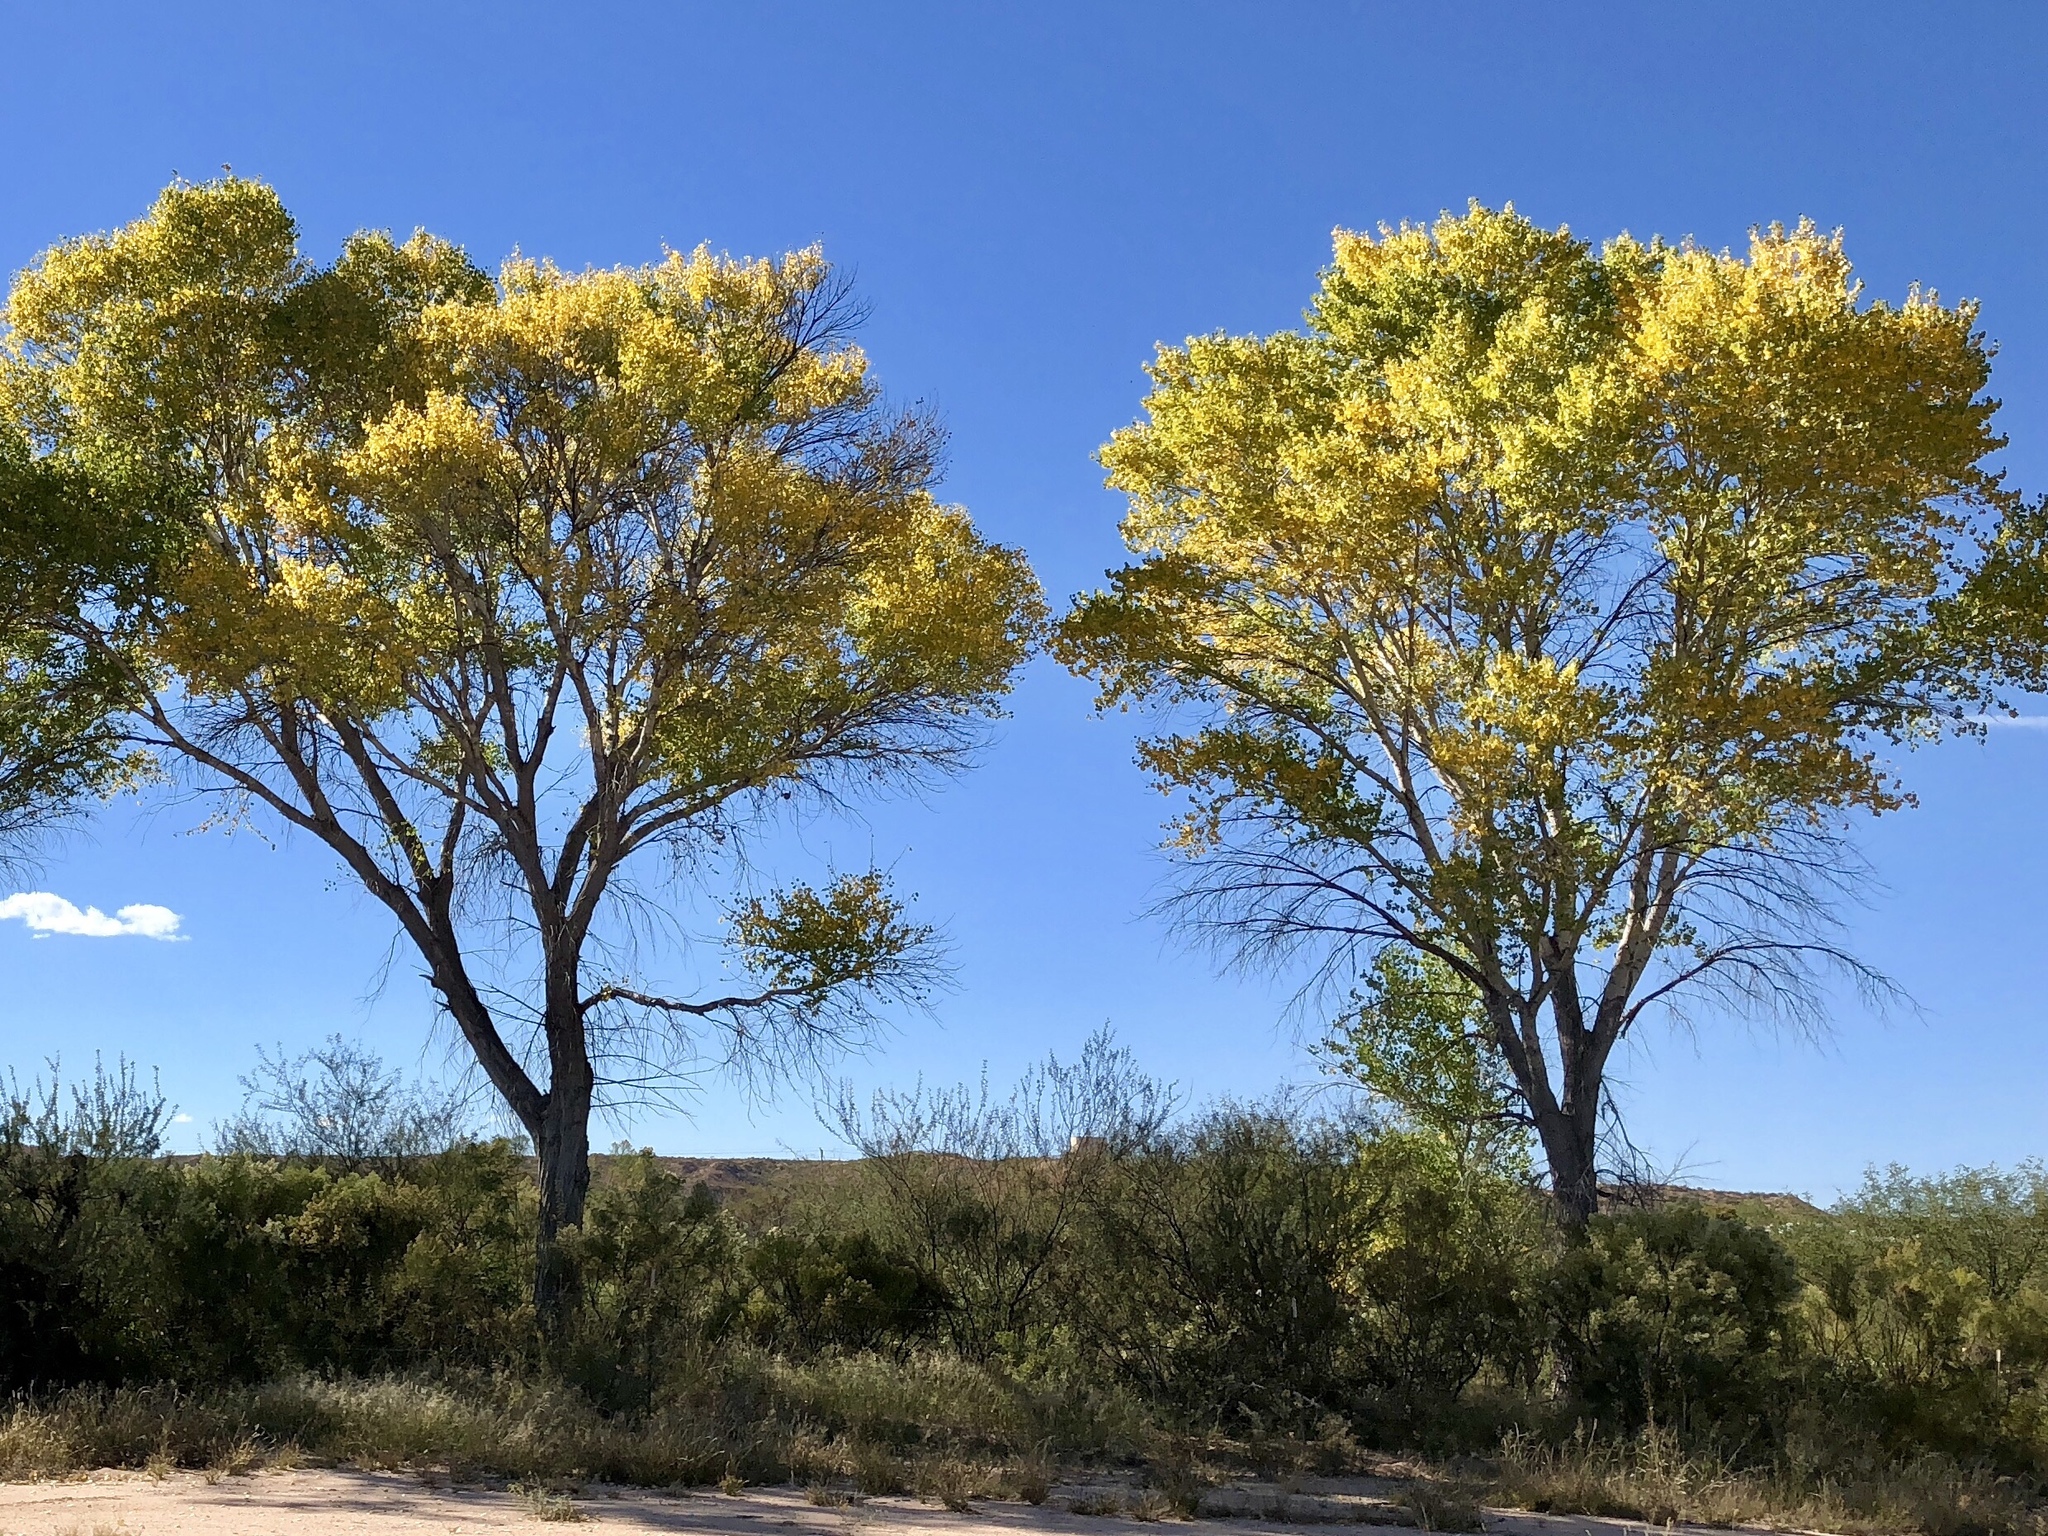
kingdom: Plantae
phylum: Tracheophyta
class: Magnoliopsida
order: Malpighiales
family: Salicaceae
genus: Populus
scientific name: Populus fremontii
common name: Fremont's cottonwood
